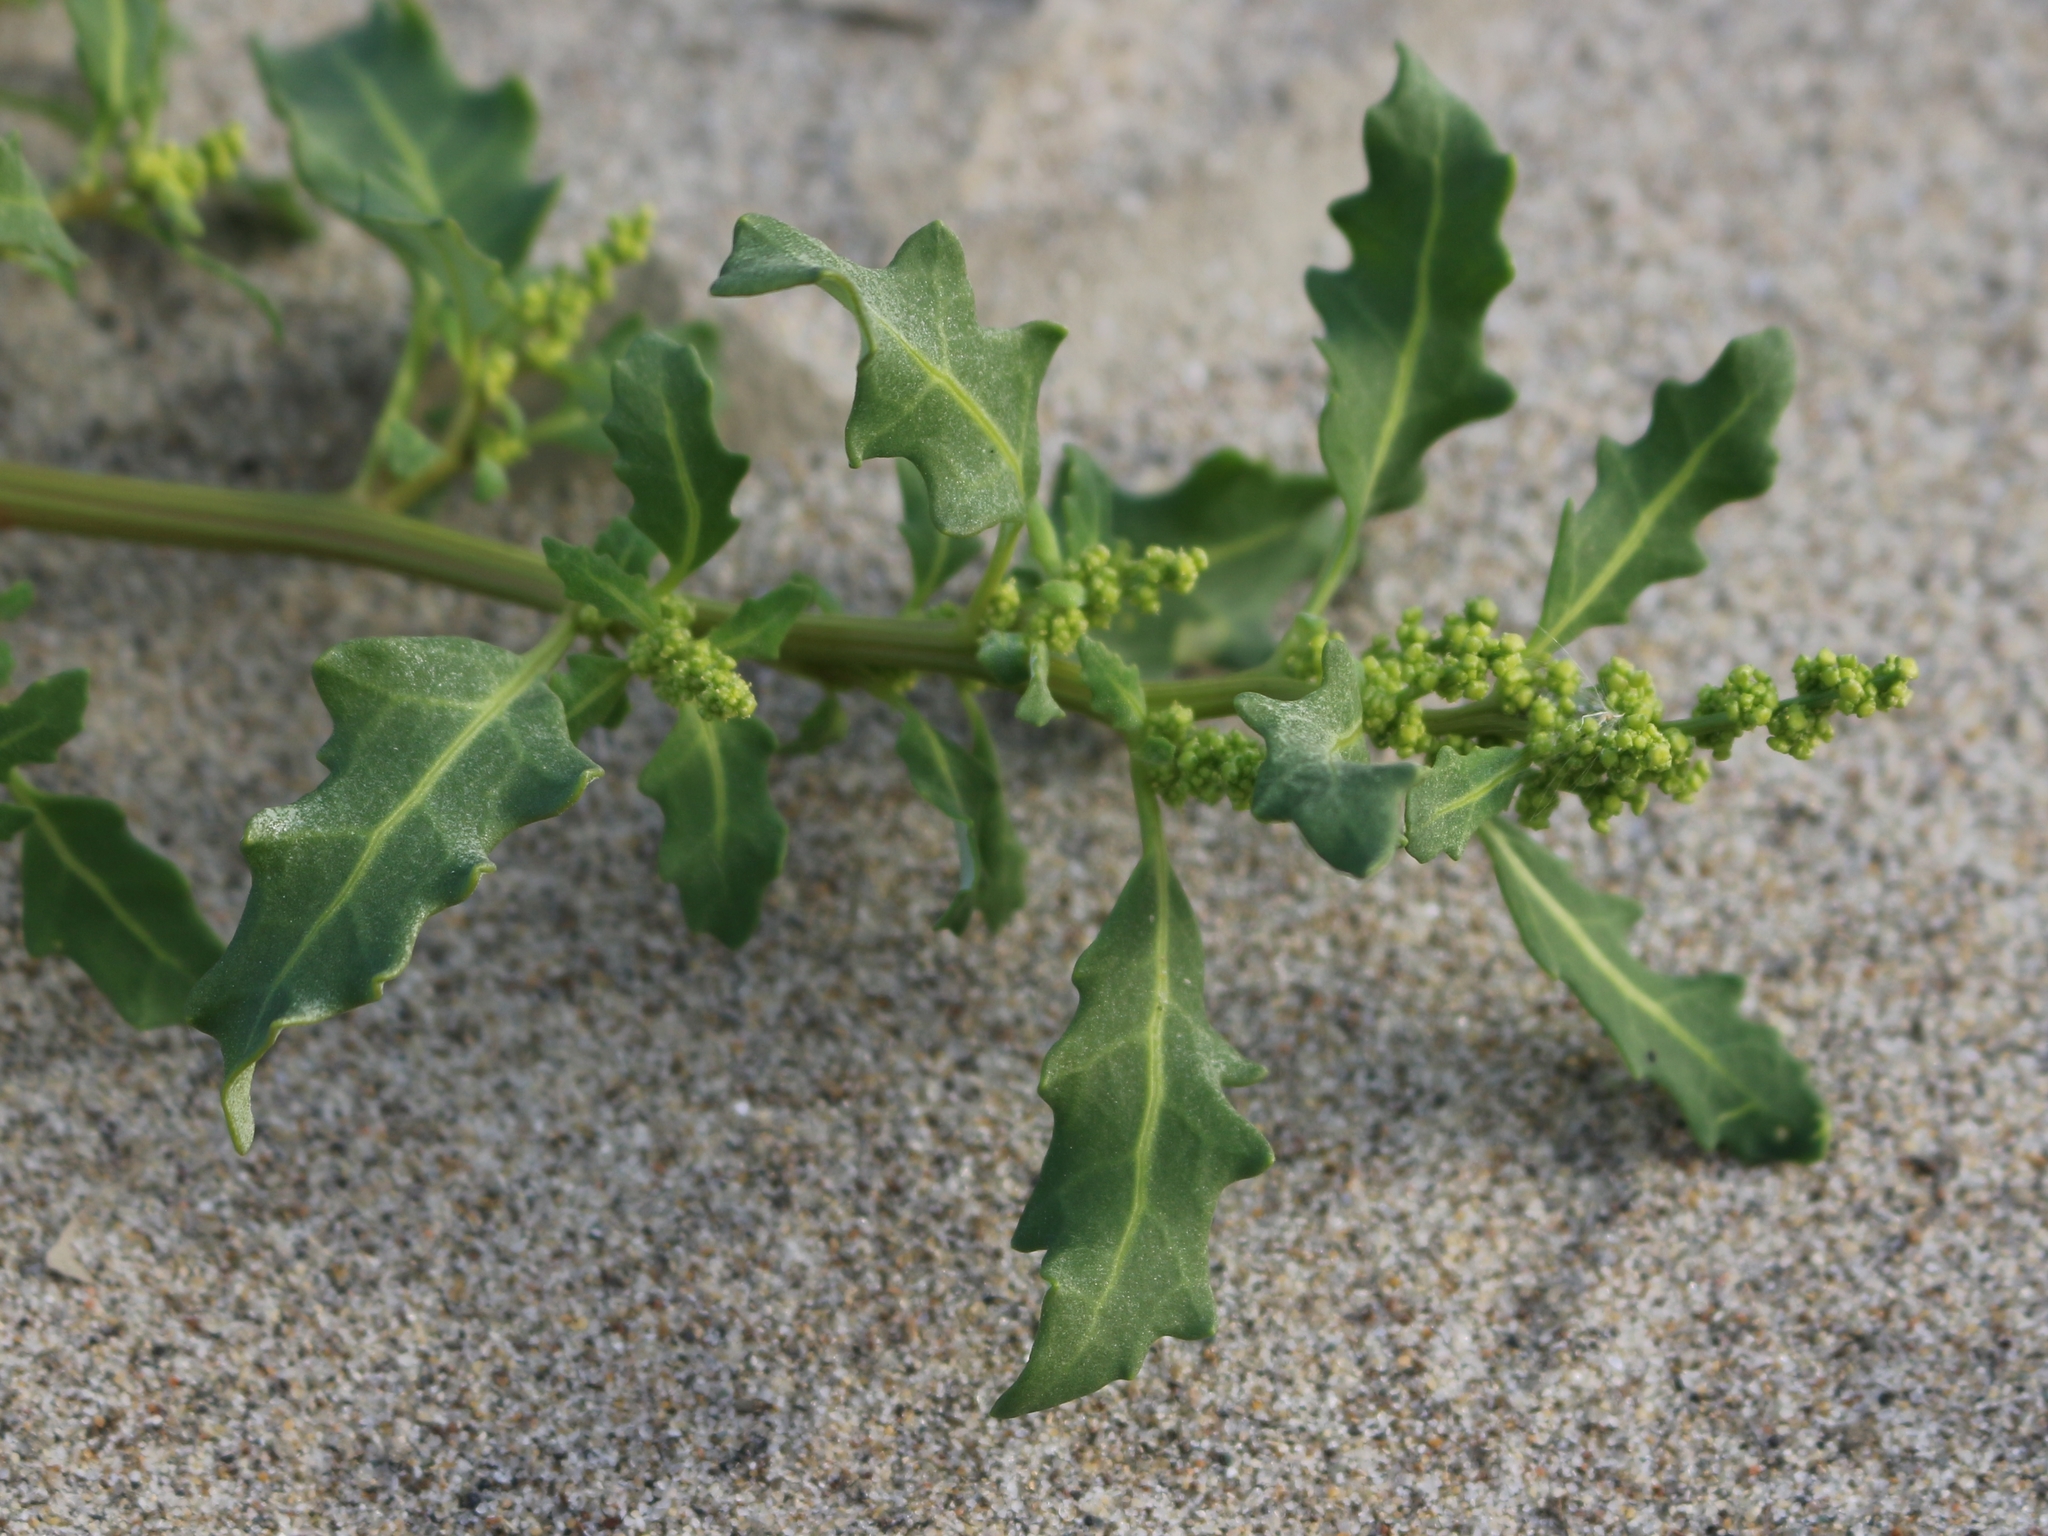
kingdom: Plantae
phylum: Tracheophyta
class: Magnoliopsida
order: Caryophyllales
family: Amaranthaceae
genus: Oxybasis
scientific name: Oxybasis glauca
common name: Glaucous goosefoot
